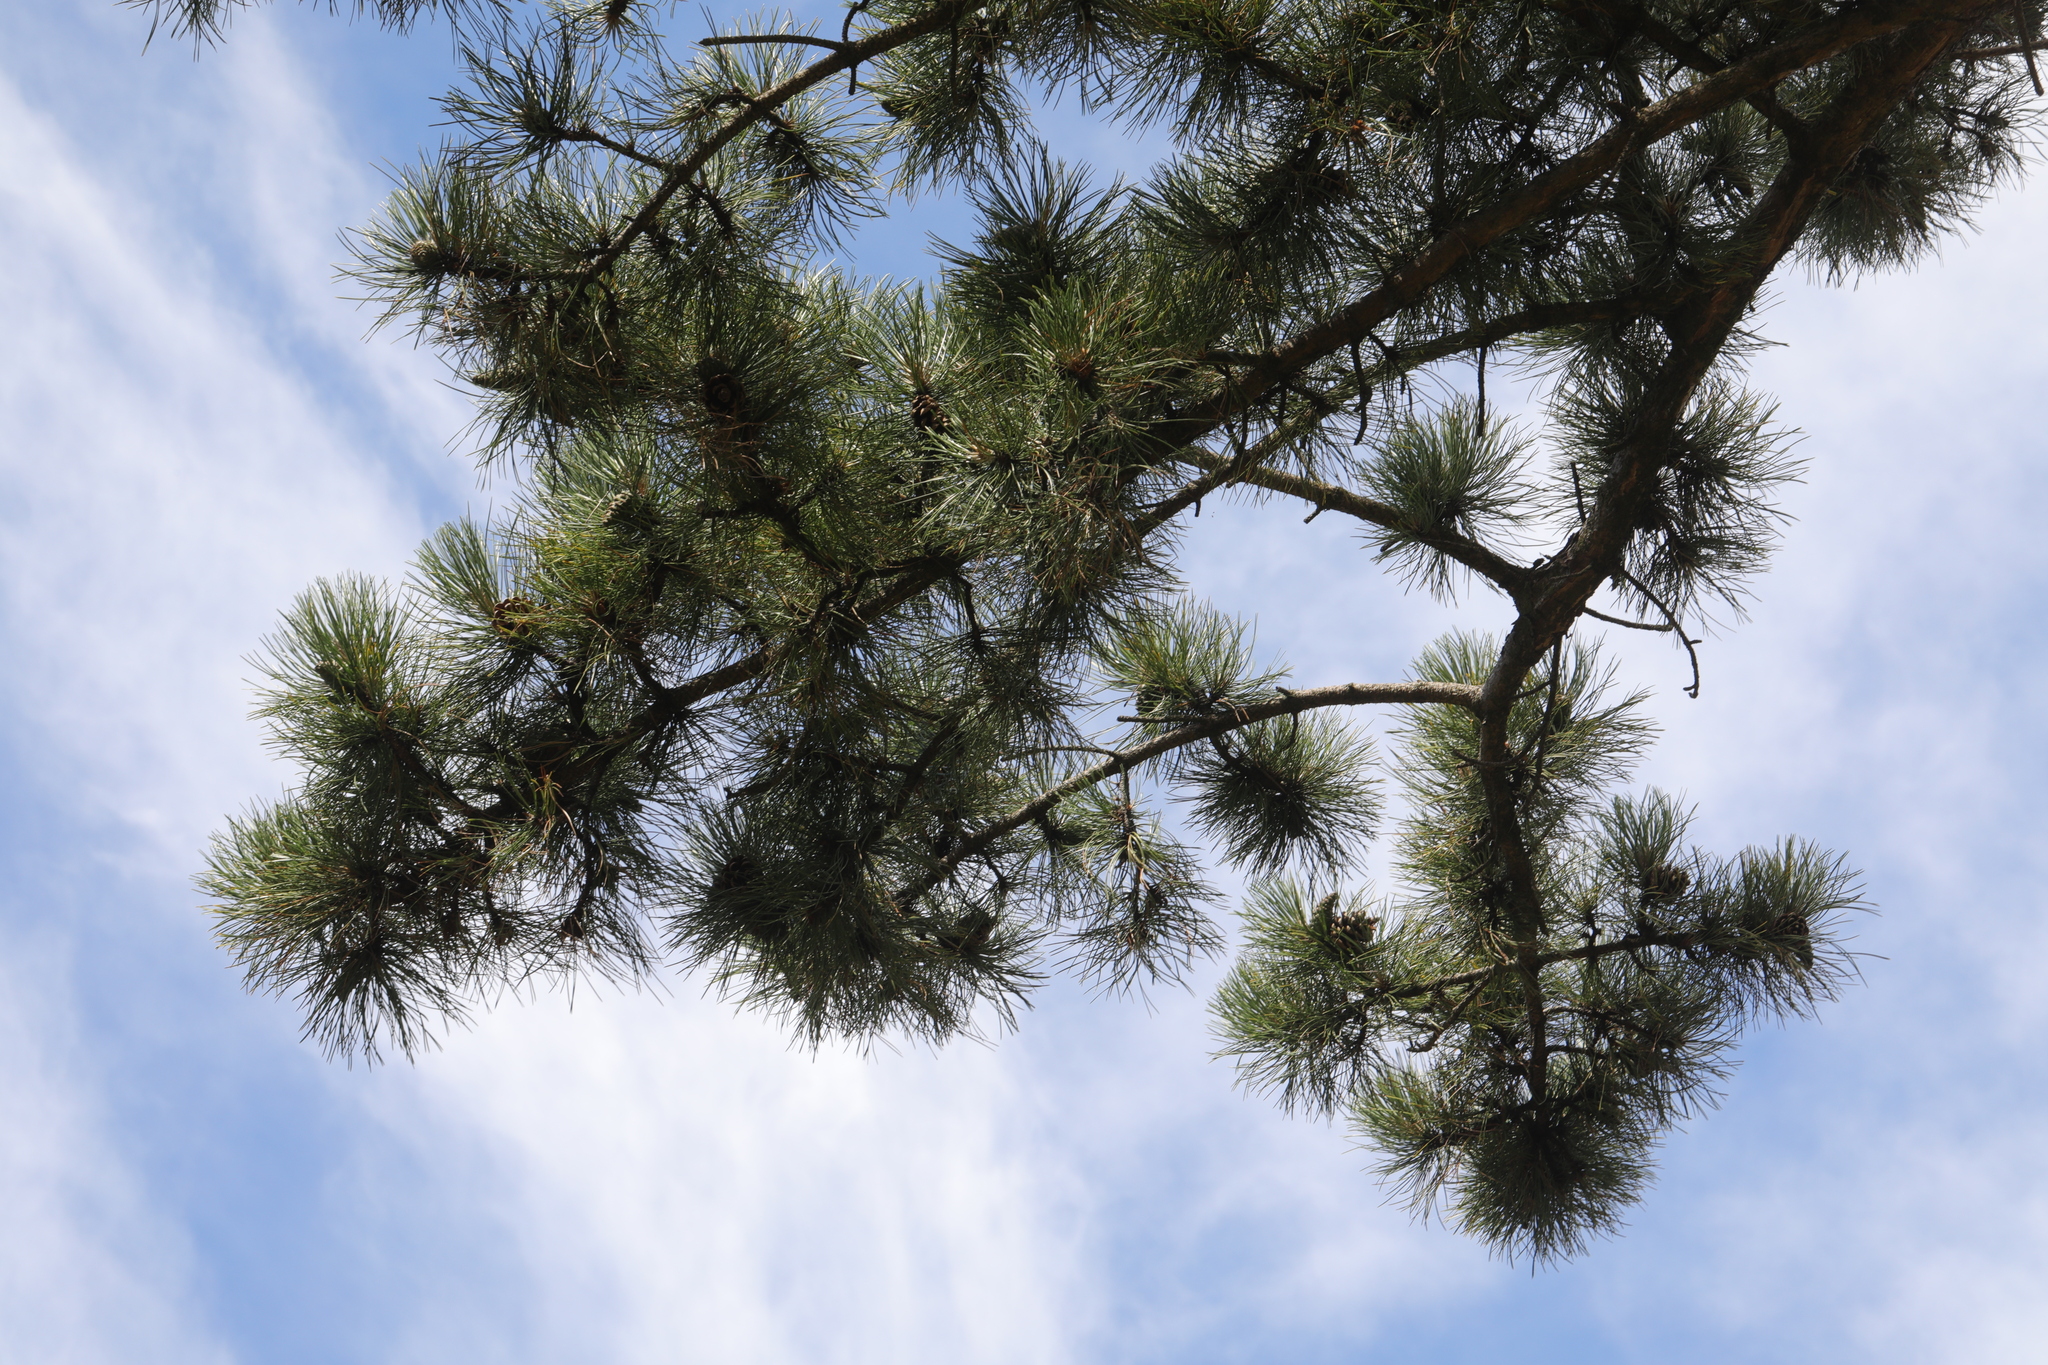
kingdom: Plantae
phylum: Tracheophyta
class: Pinopsida
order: Pinales
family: Pinaceae
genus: Pinus
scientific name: Pinus sylvestris
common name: Scots pine
